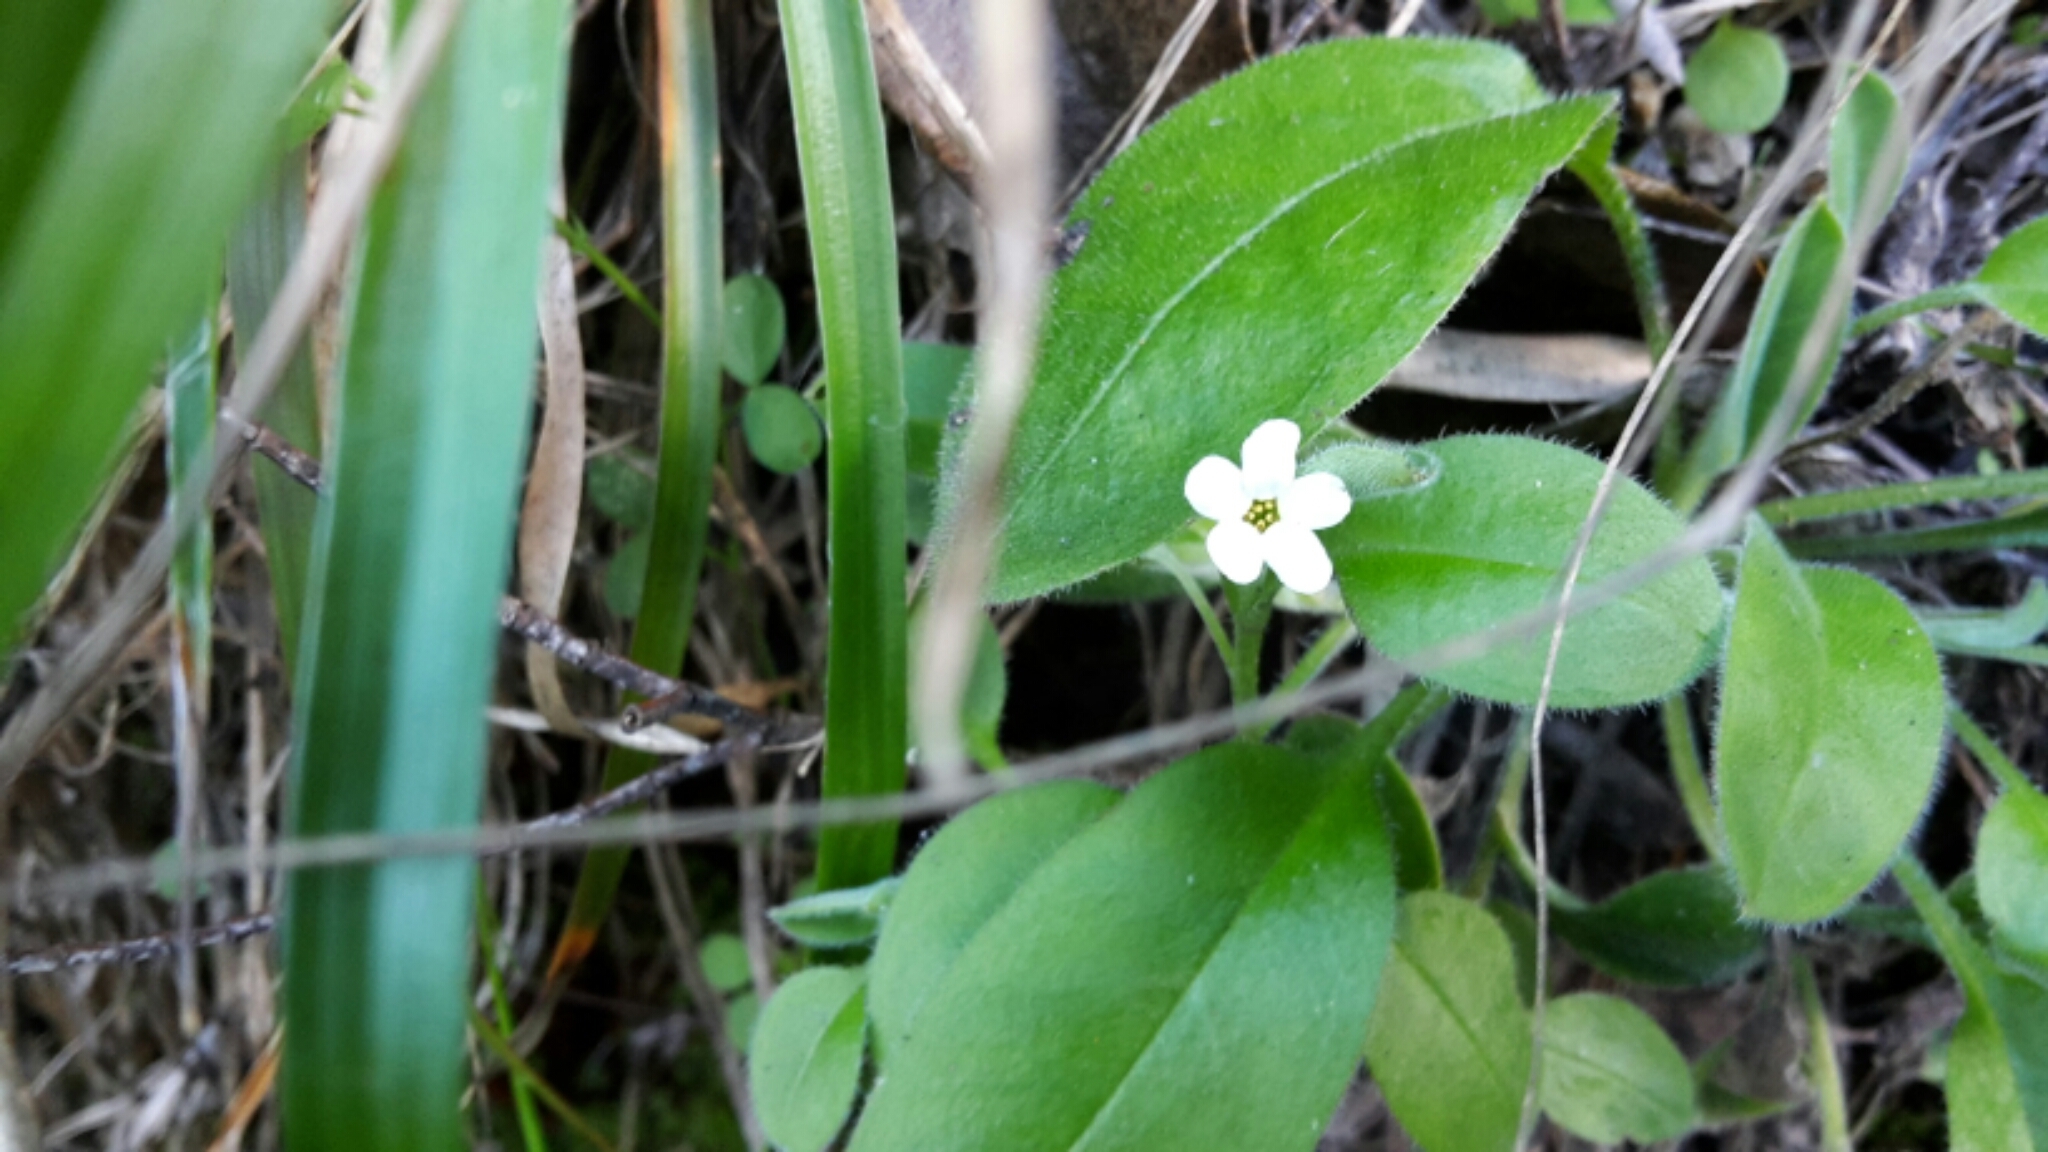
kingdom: Plantae
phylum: Tracheophyta
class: Magnoliopsida
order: Boraginales
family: Boraginaceae
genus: Myosotis
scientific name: Myosotis australis
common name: Australian forget-me-not
